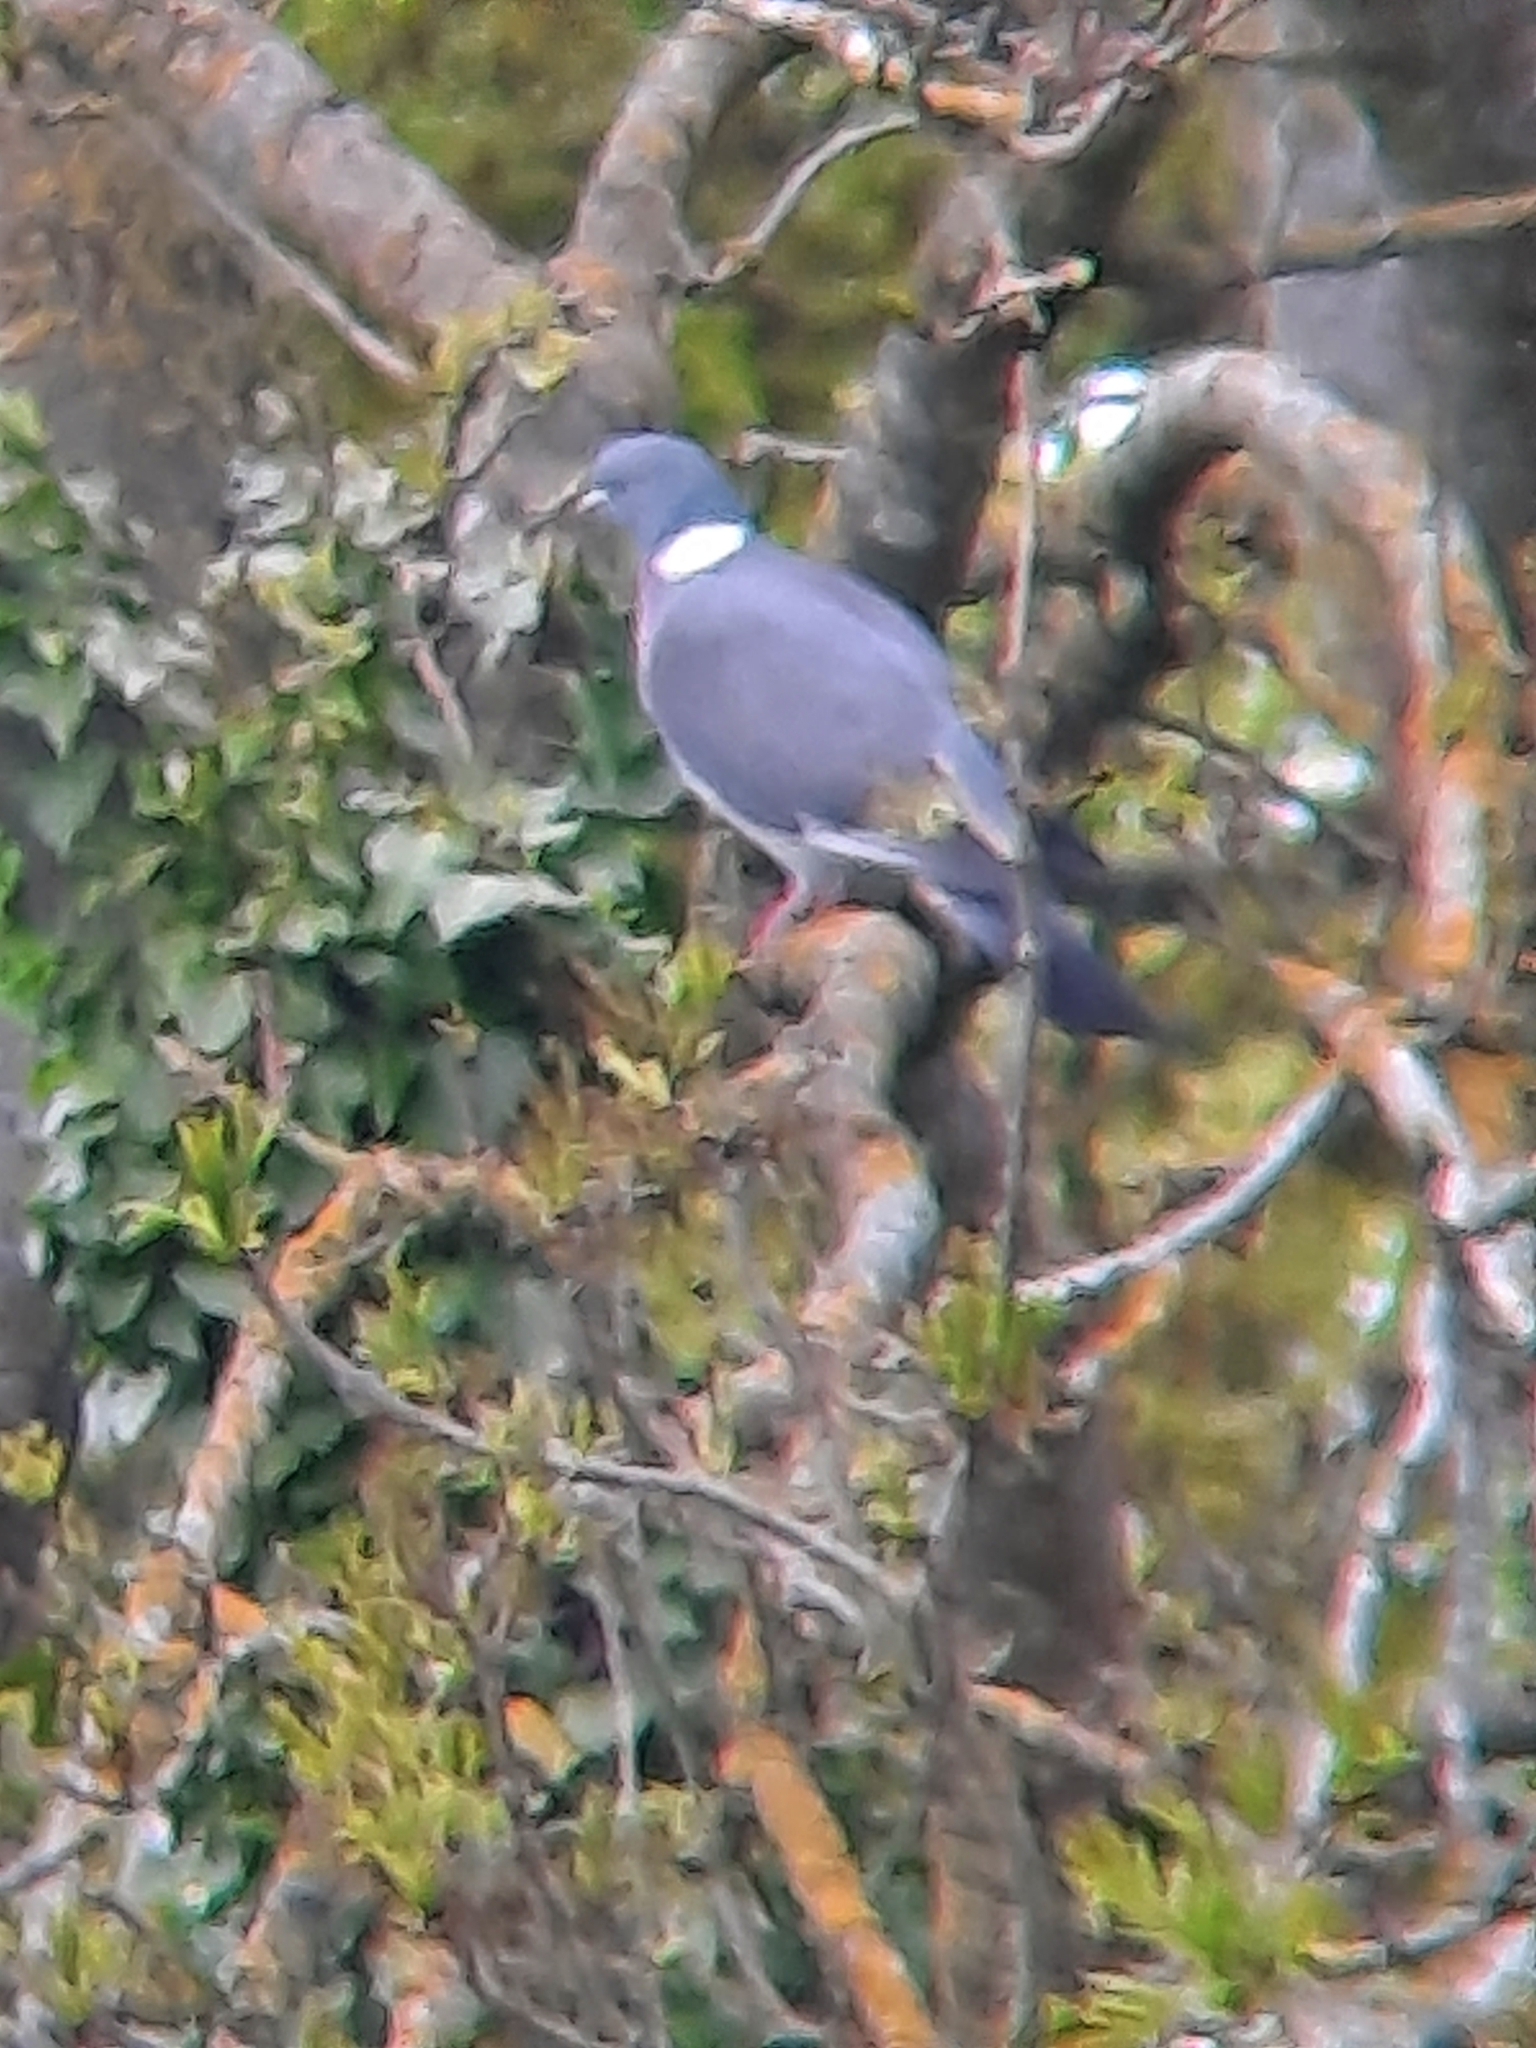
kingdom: Animalia
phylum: Chordata
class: Aves
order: Columbiformes
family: Columbidae
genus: Columba
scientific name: Columba palumbus
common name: Common wood pigeon
